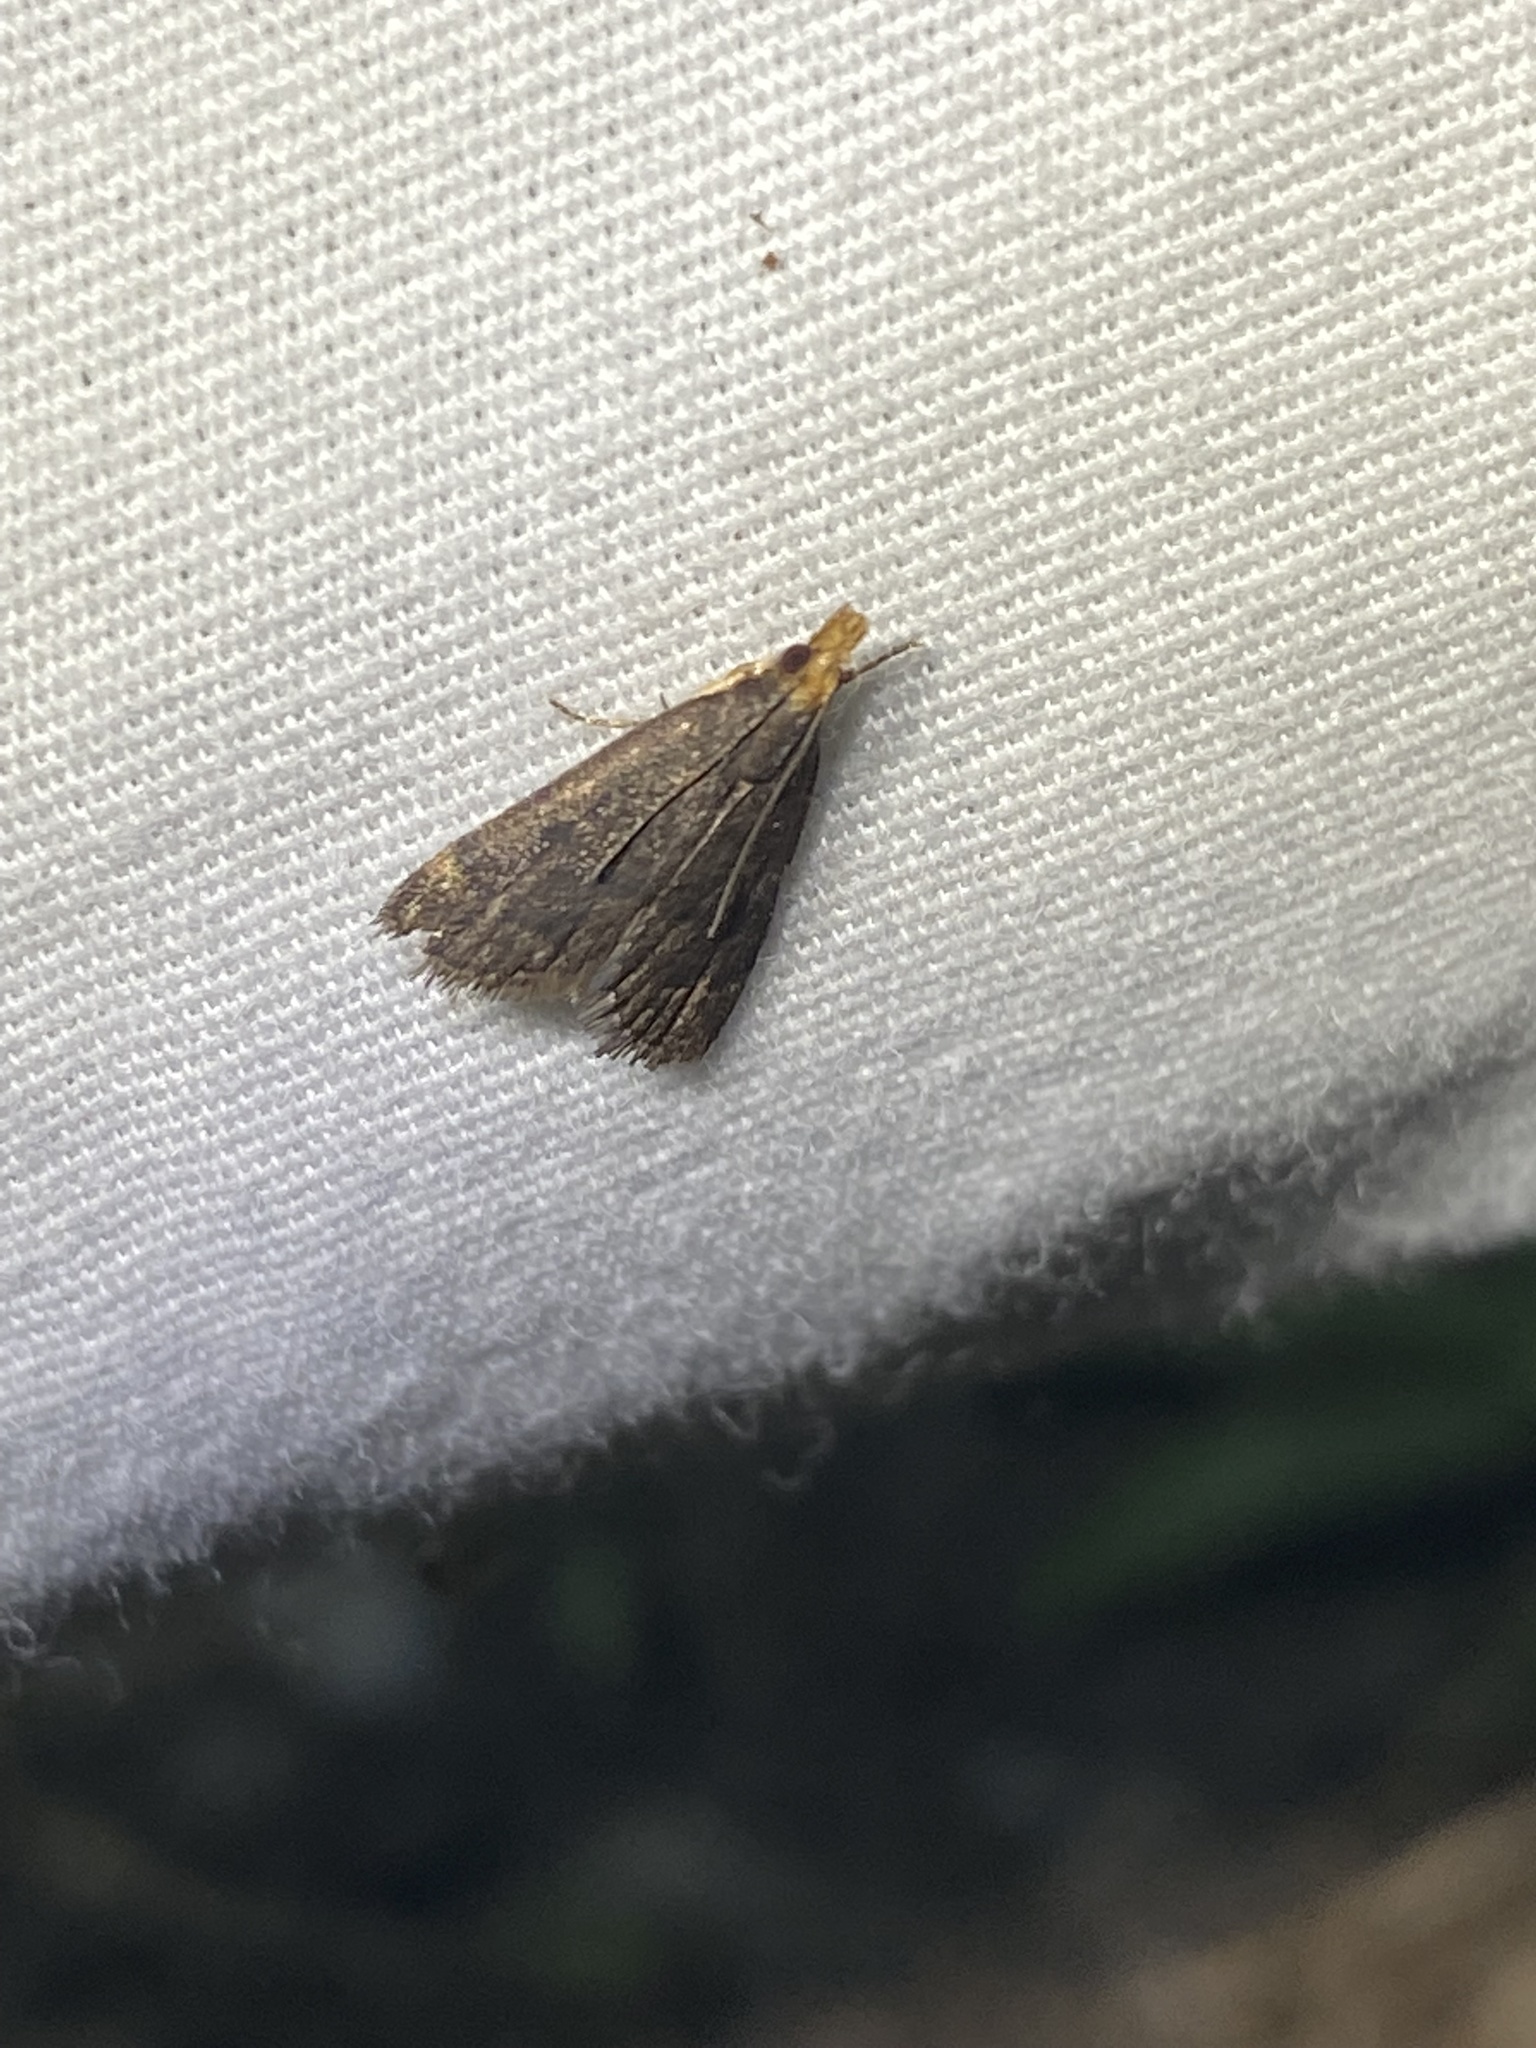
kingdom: Animalia
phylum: Arthropoda
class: Insecta
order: Lepidoptera
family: Crambidae
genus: Pyrausta
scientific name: Pyrausta merrickalis
